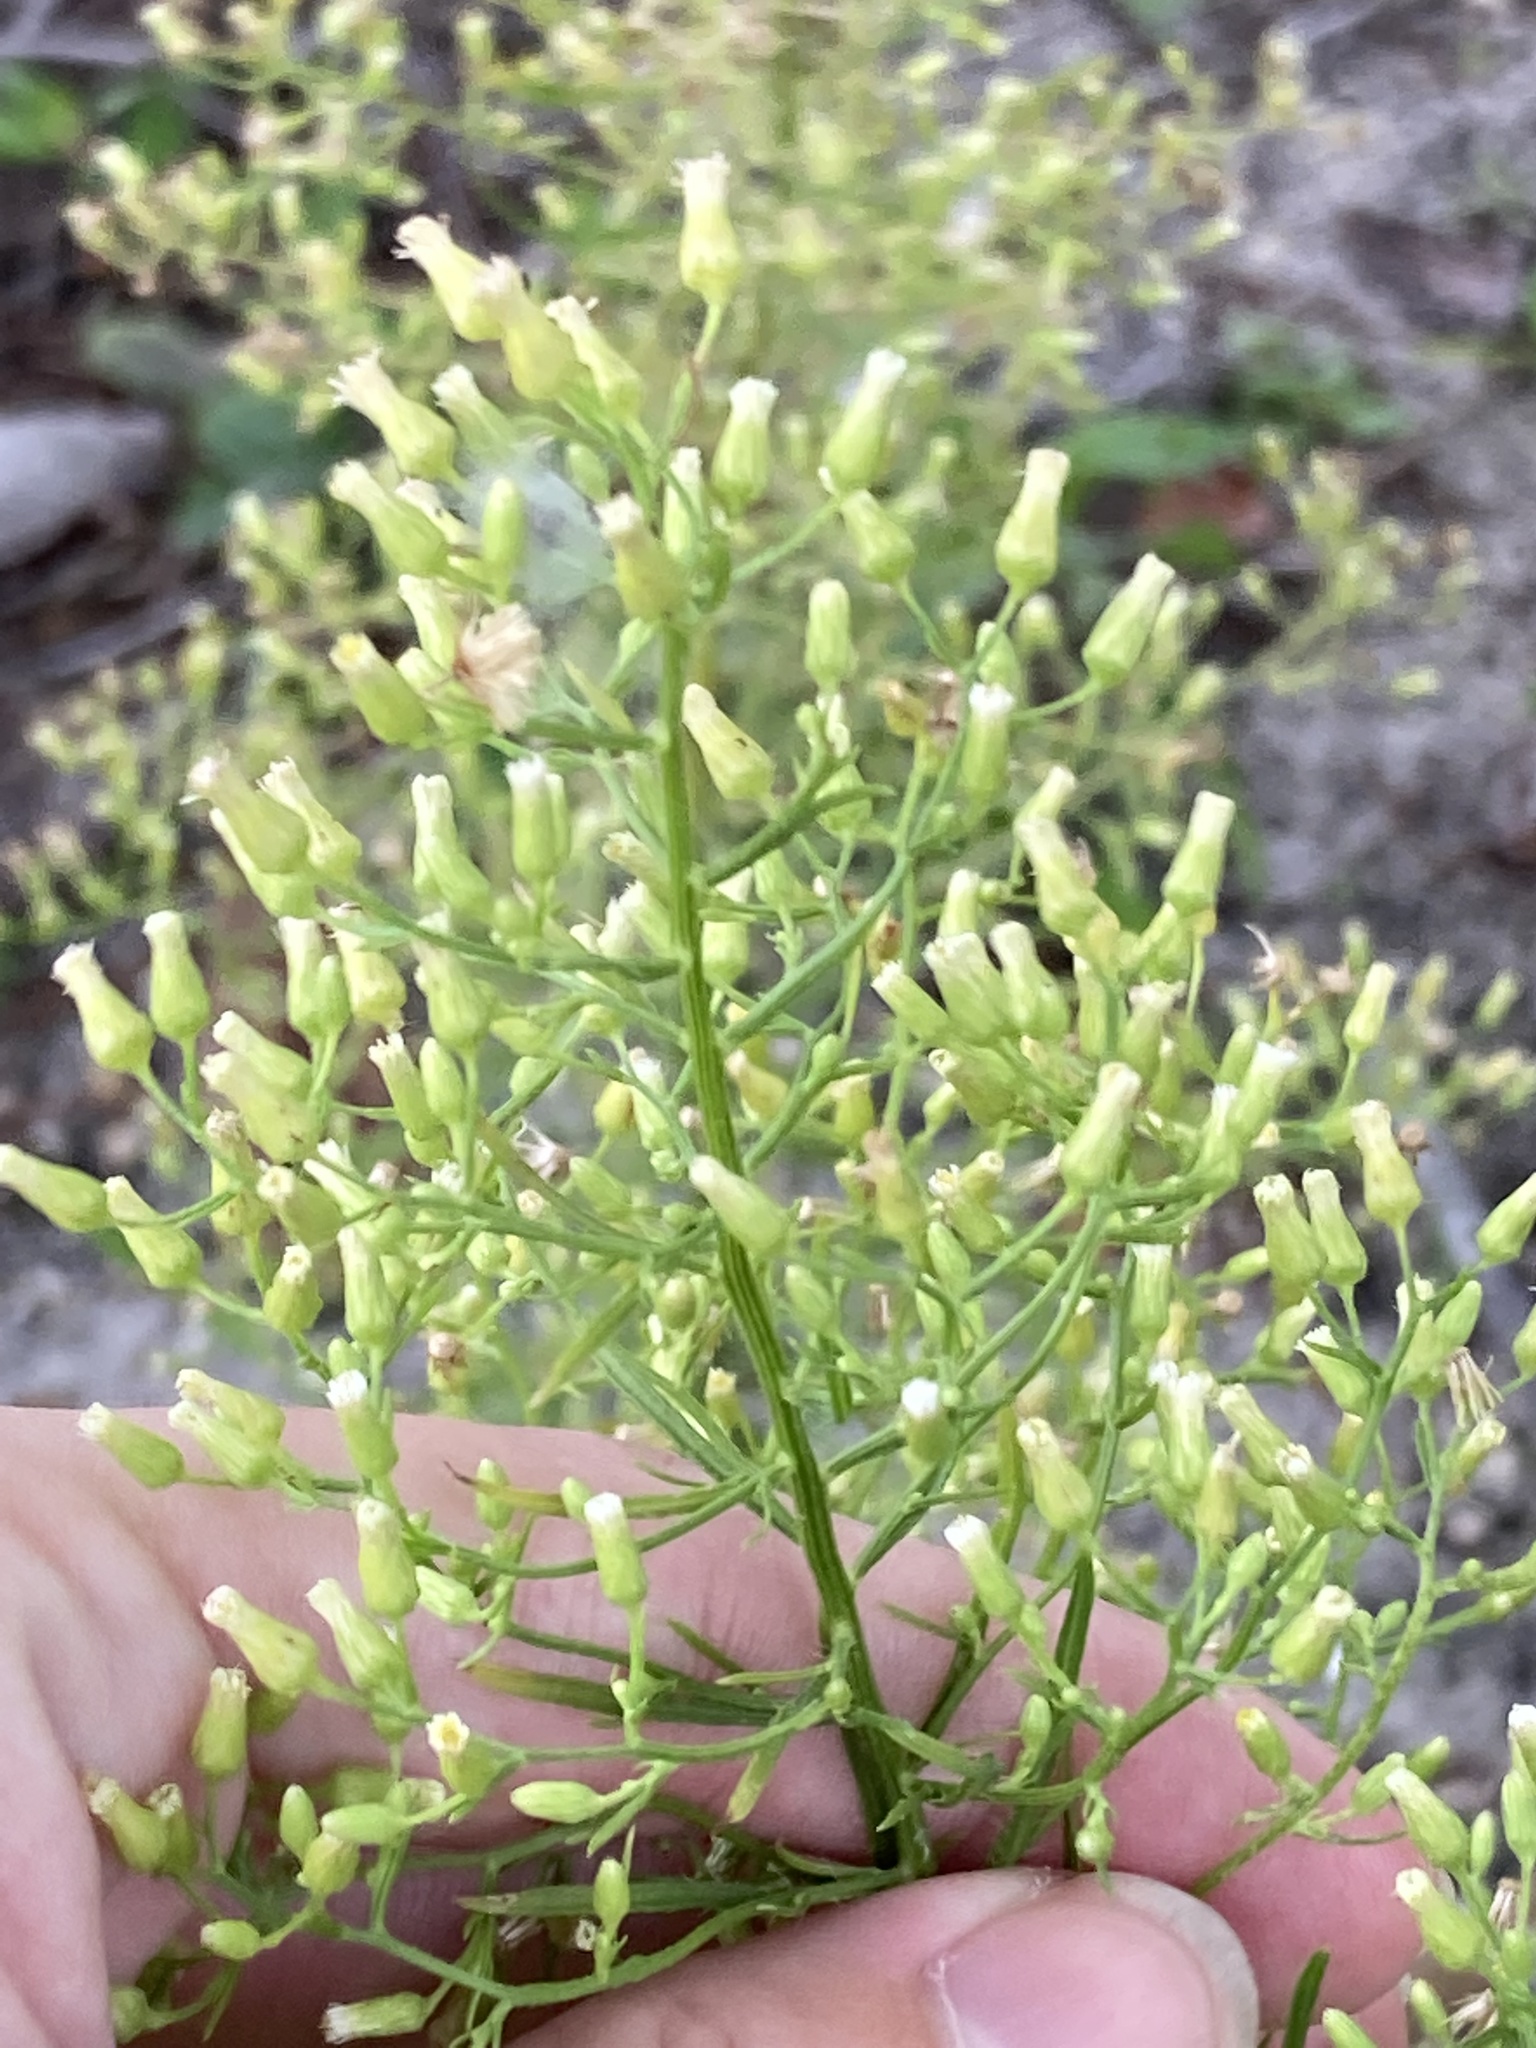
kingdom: Plantae
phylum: Tracheophyta
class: Magnoliopsida
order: Asterales
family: Asteraceae
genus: Erigeron
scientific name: Erigeron canadensis
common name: Canadian fleabane
